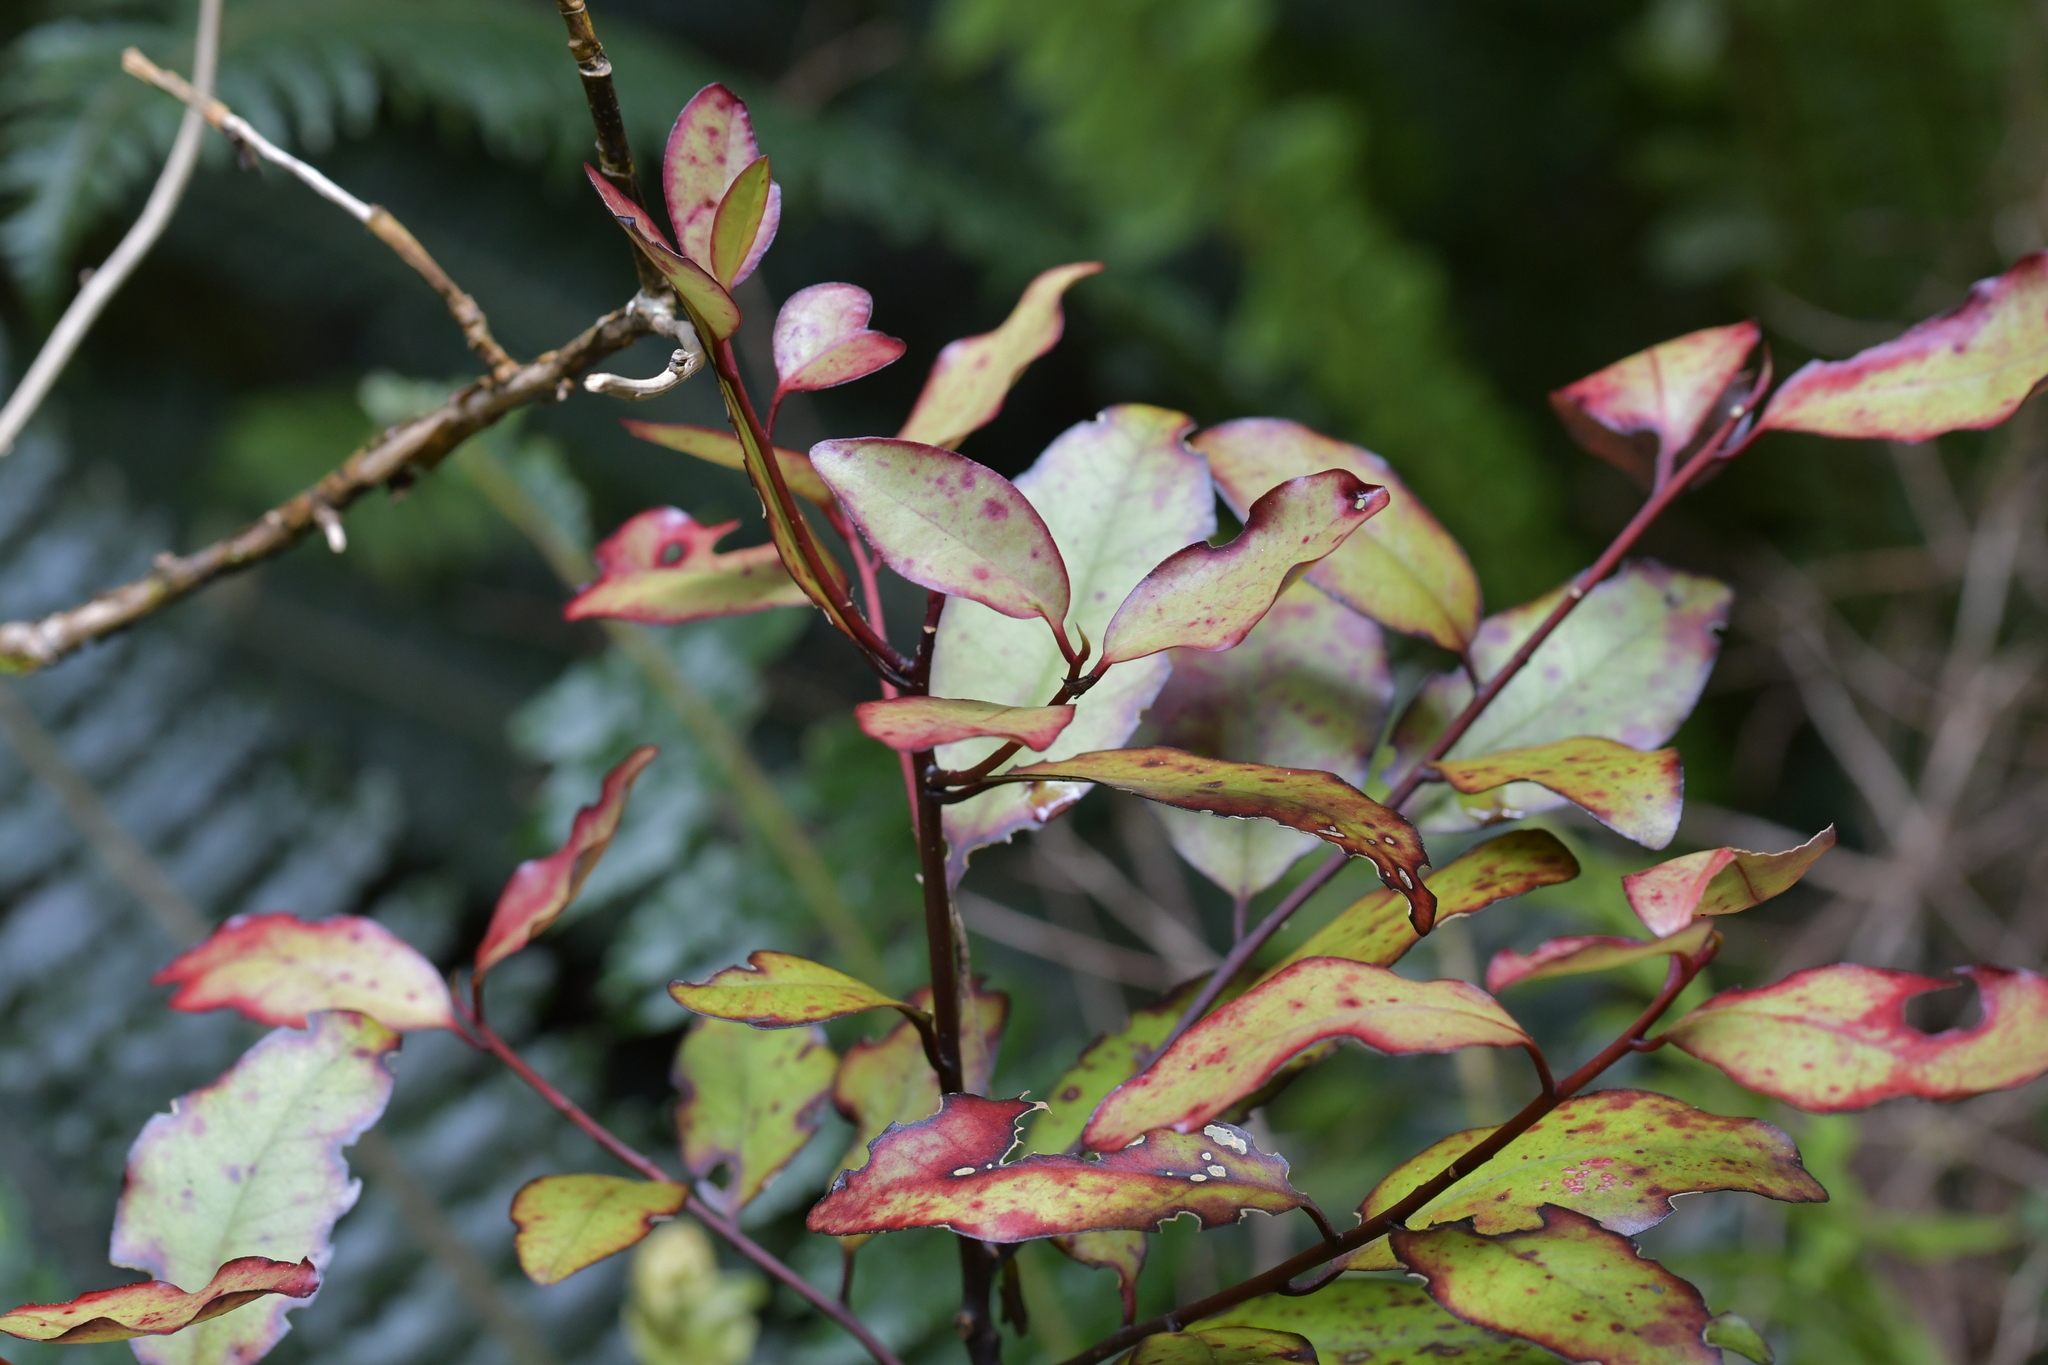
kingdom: Plantae
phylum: Tracheophyta
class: Magnoliopsida
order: Canellales
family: Winteraceae
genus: Pseudowintera
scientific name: Pseudowintera colorata
